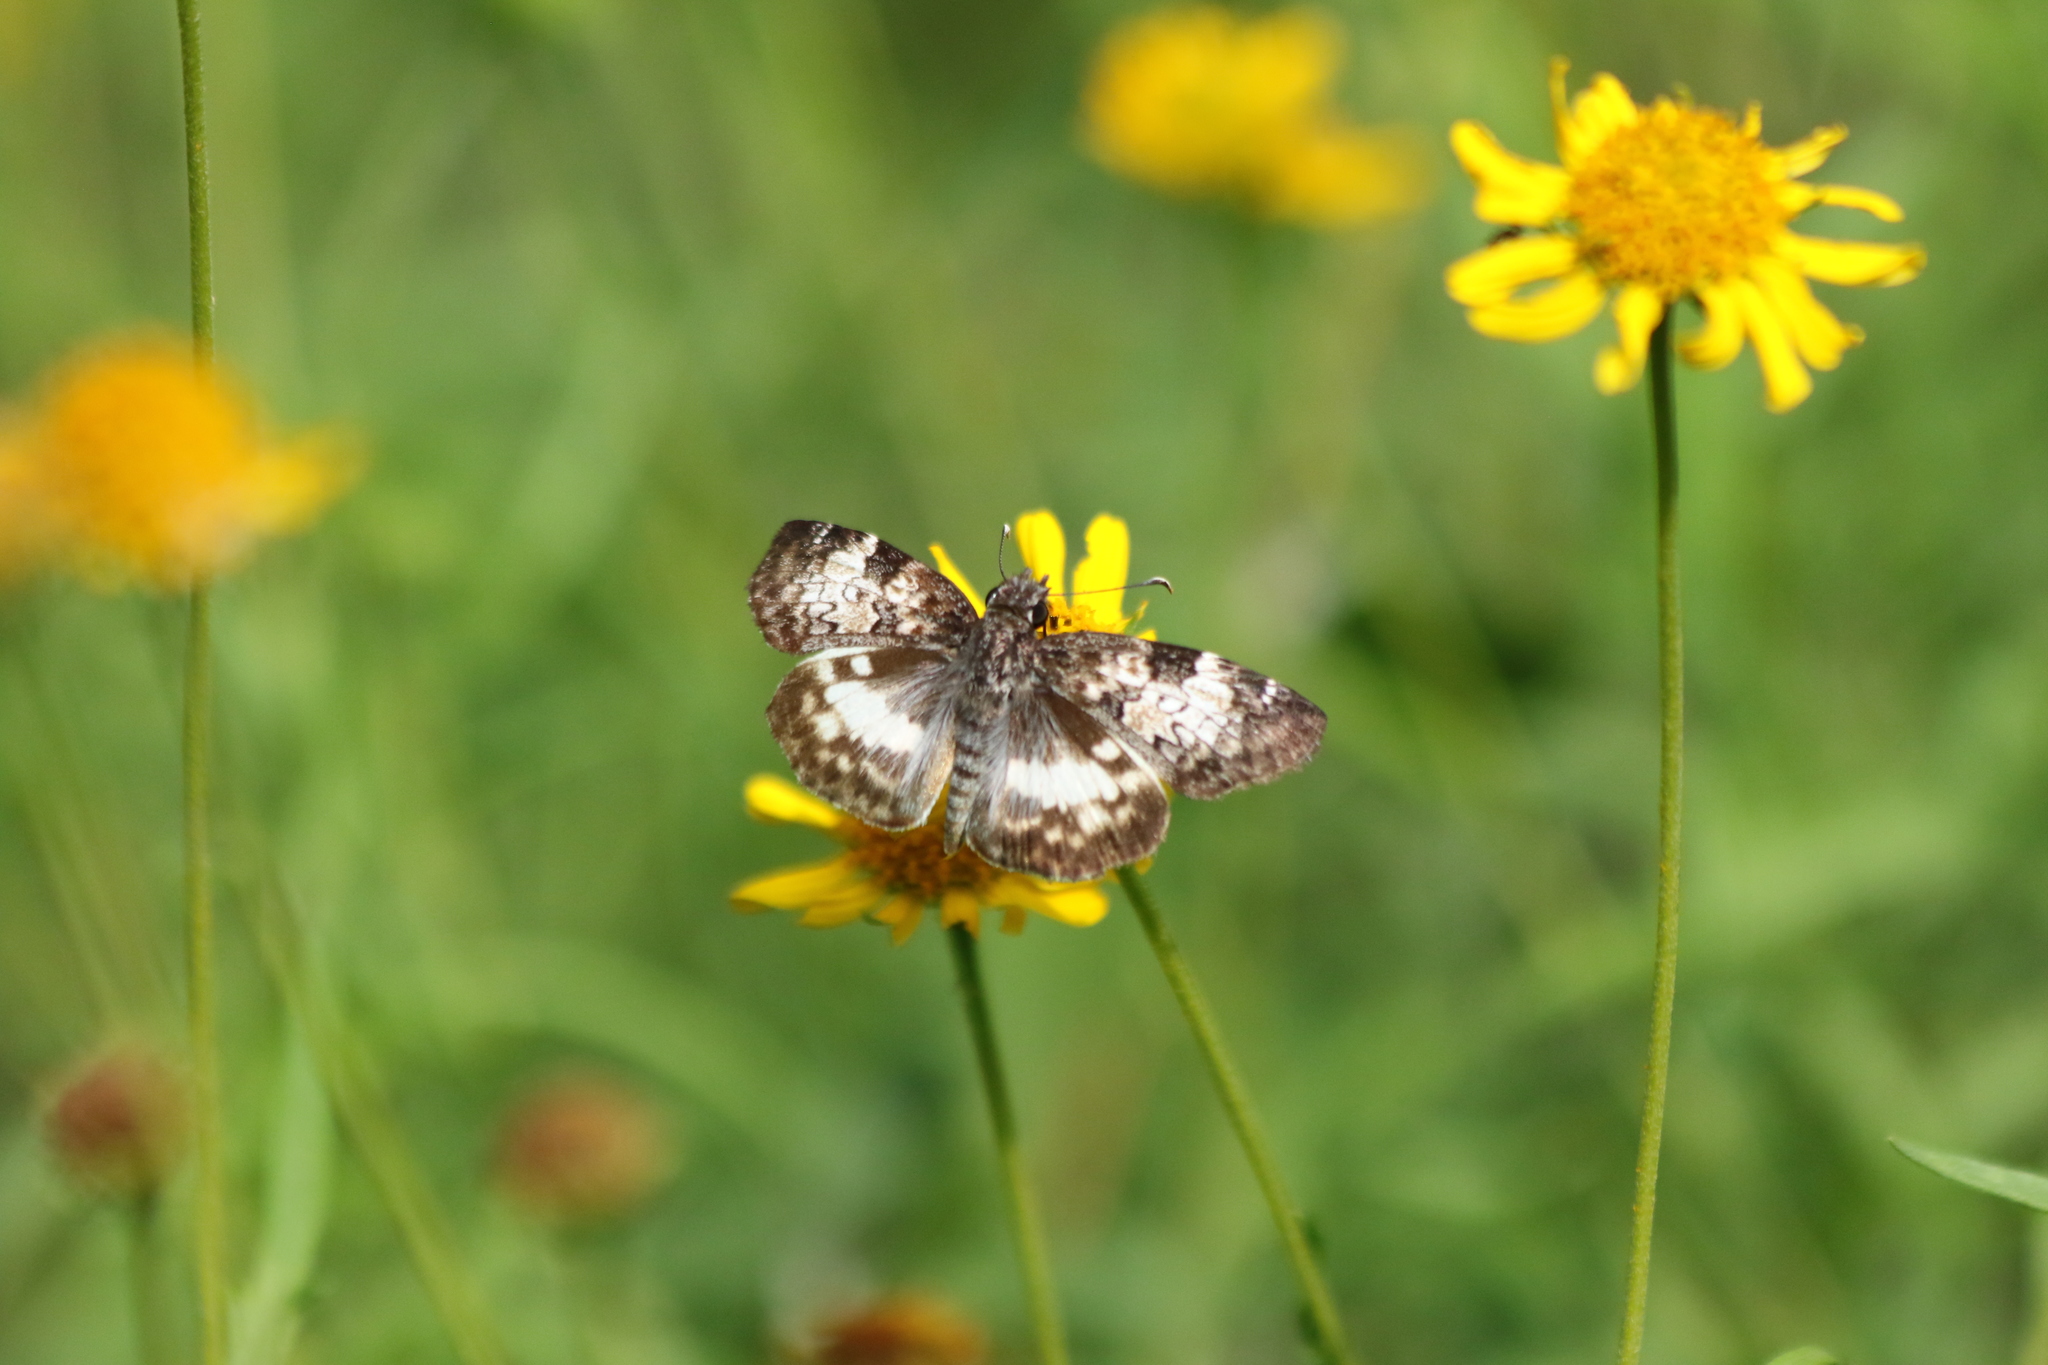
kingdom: Animalia
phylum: Arthropoda
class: Insecta
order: Lepidoptera
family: Hesperiidae
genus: Chiothion
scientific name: Chiothion georgina
